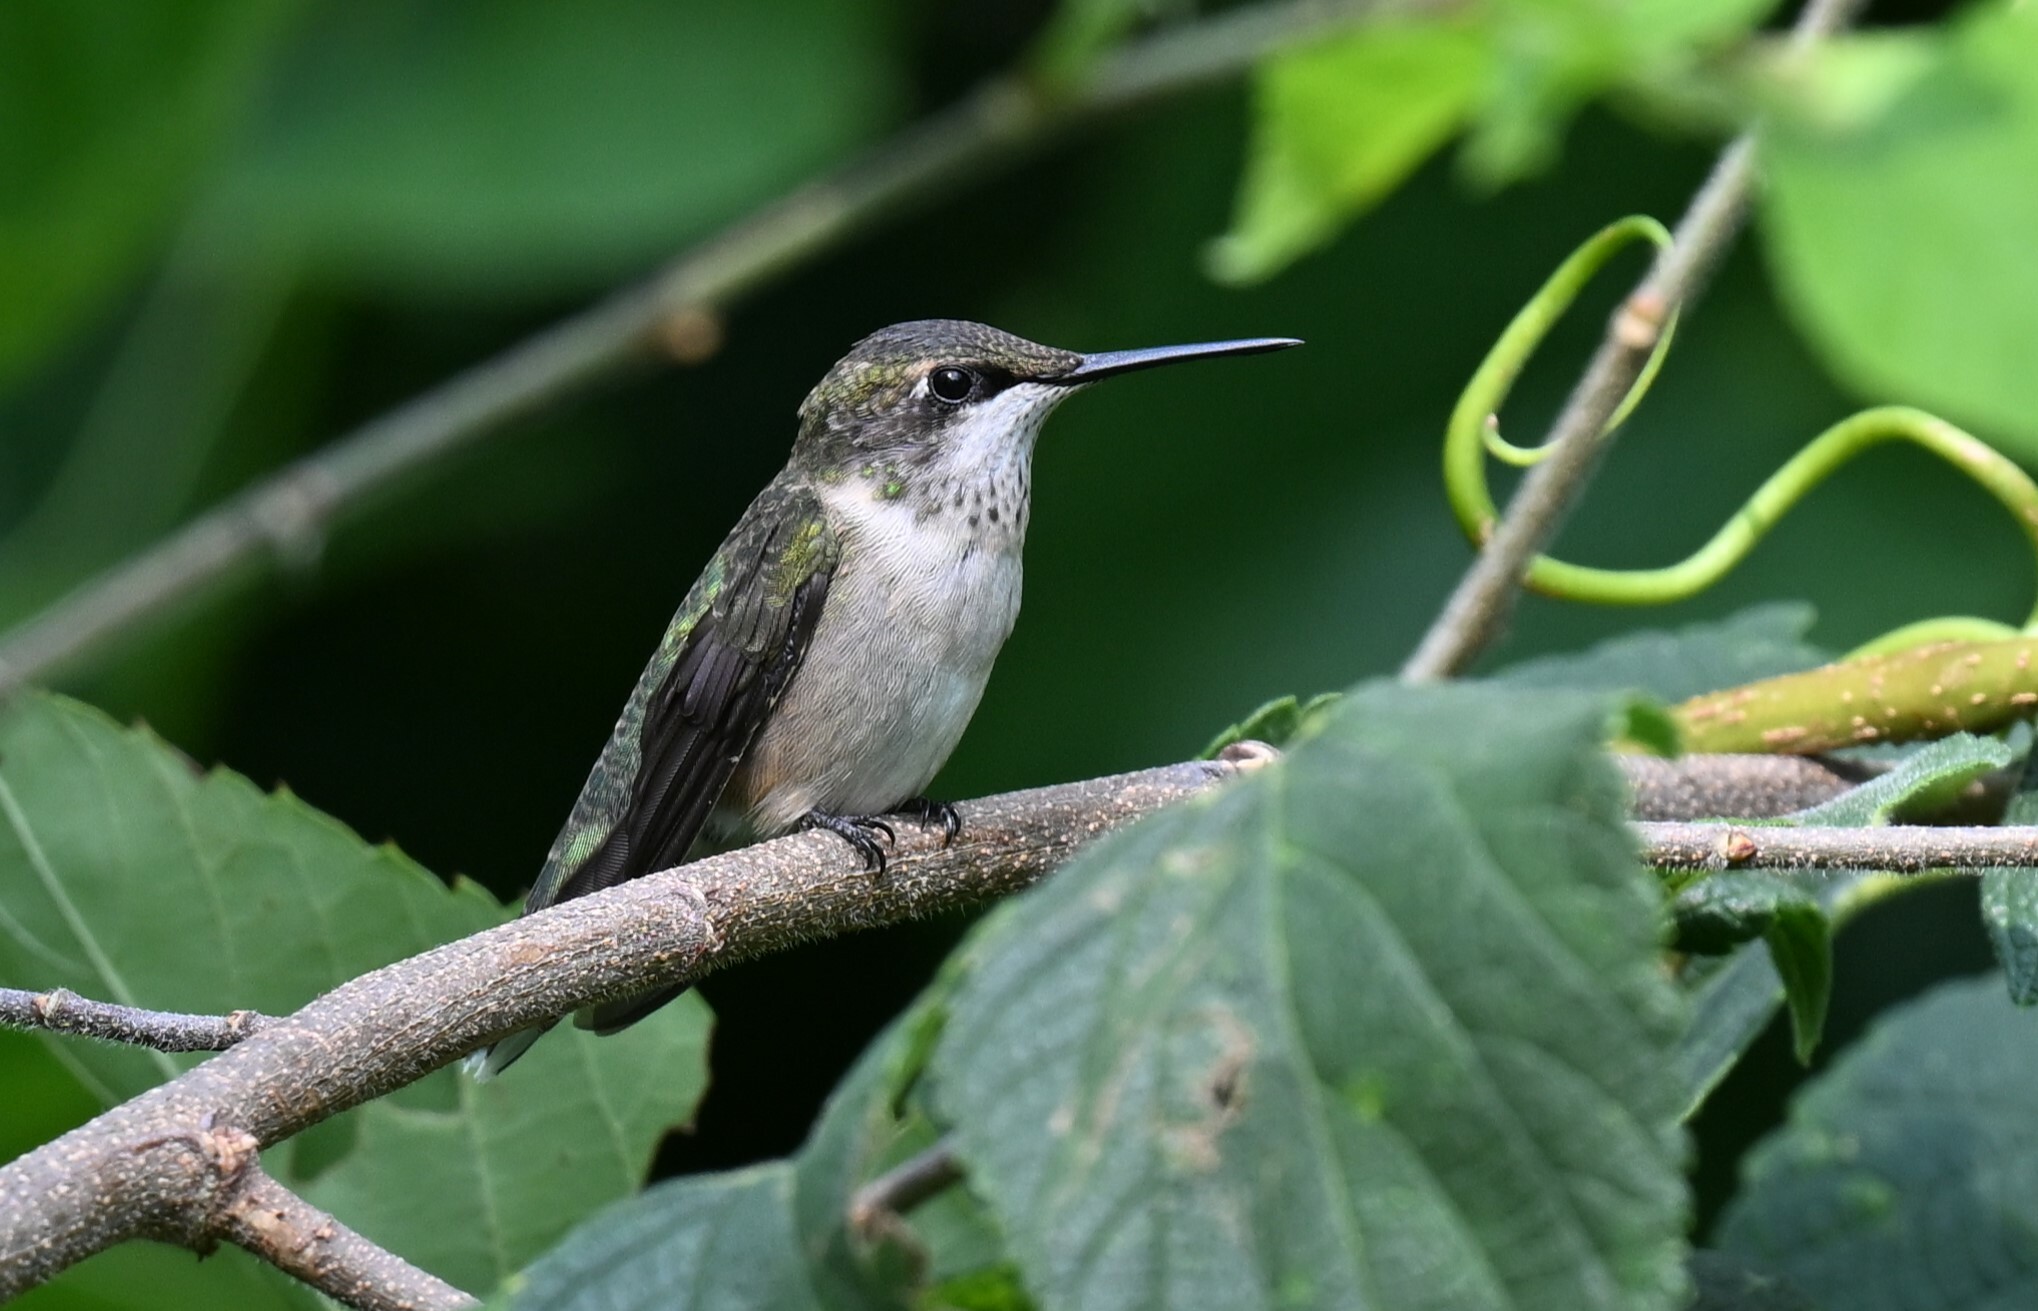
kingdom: Animalia
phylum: Chordata
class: Aves
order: Apodiformes
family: Trochilidae
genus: Archilochus
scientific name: Archilochus colubris
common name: Ruby-throated hummingbird
